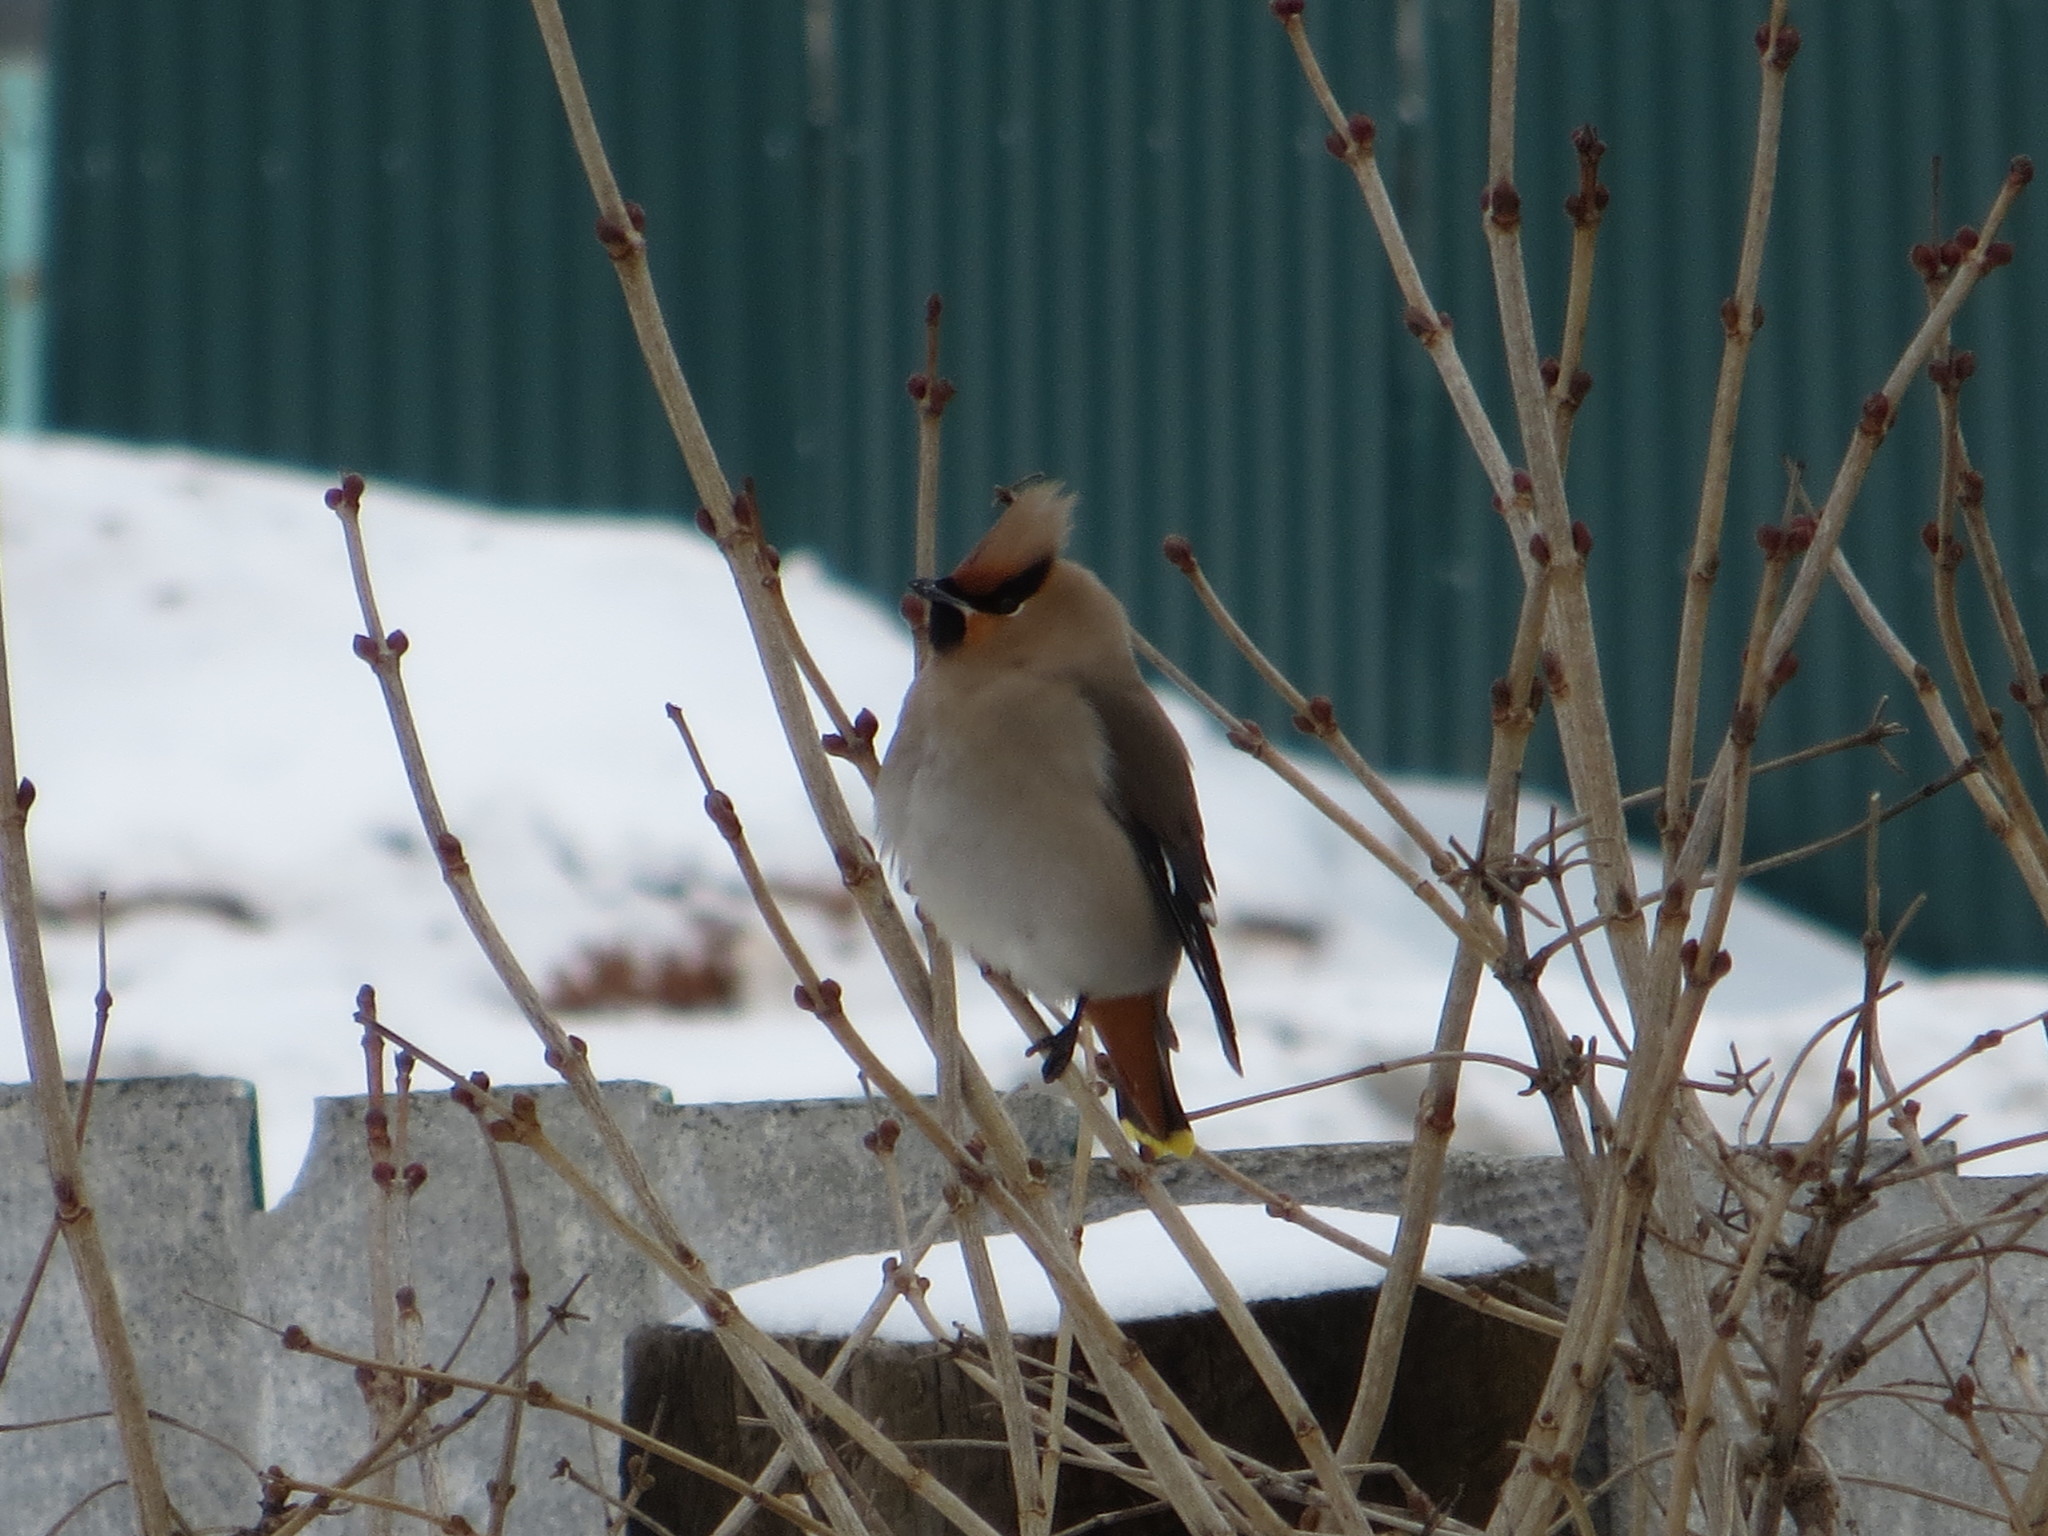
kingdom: Animalia
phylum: Chordata
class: Aves
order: Passeriformes
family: Bombycillidae
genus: Bombycilla
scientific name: Bombycilla garrulus
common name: Bohemian waxwing
